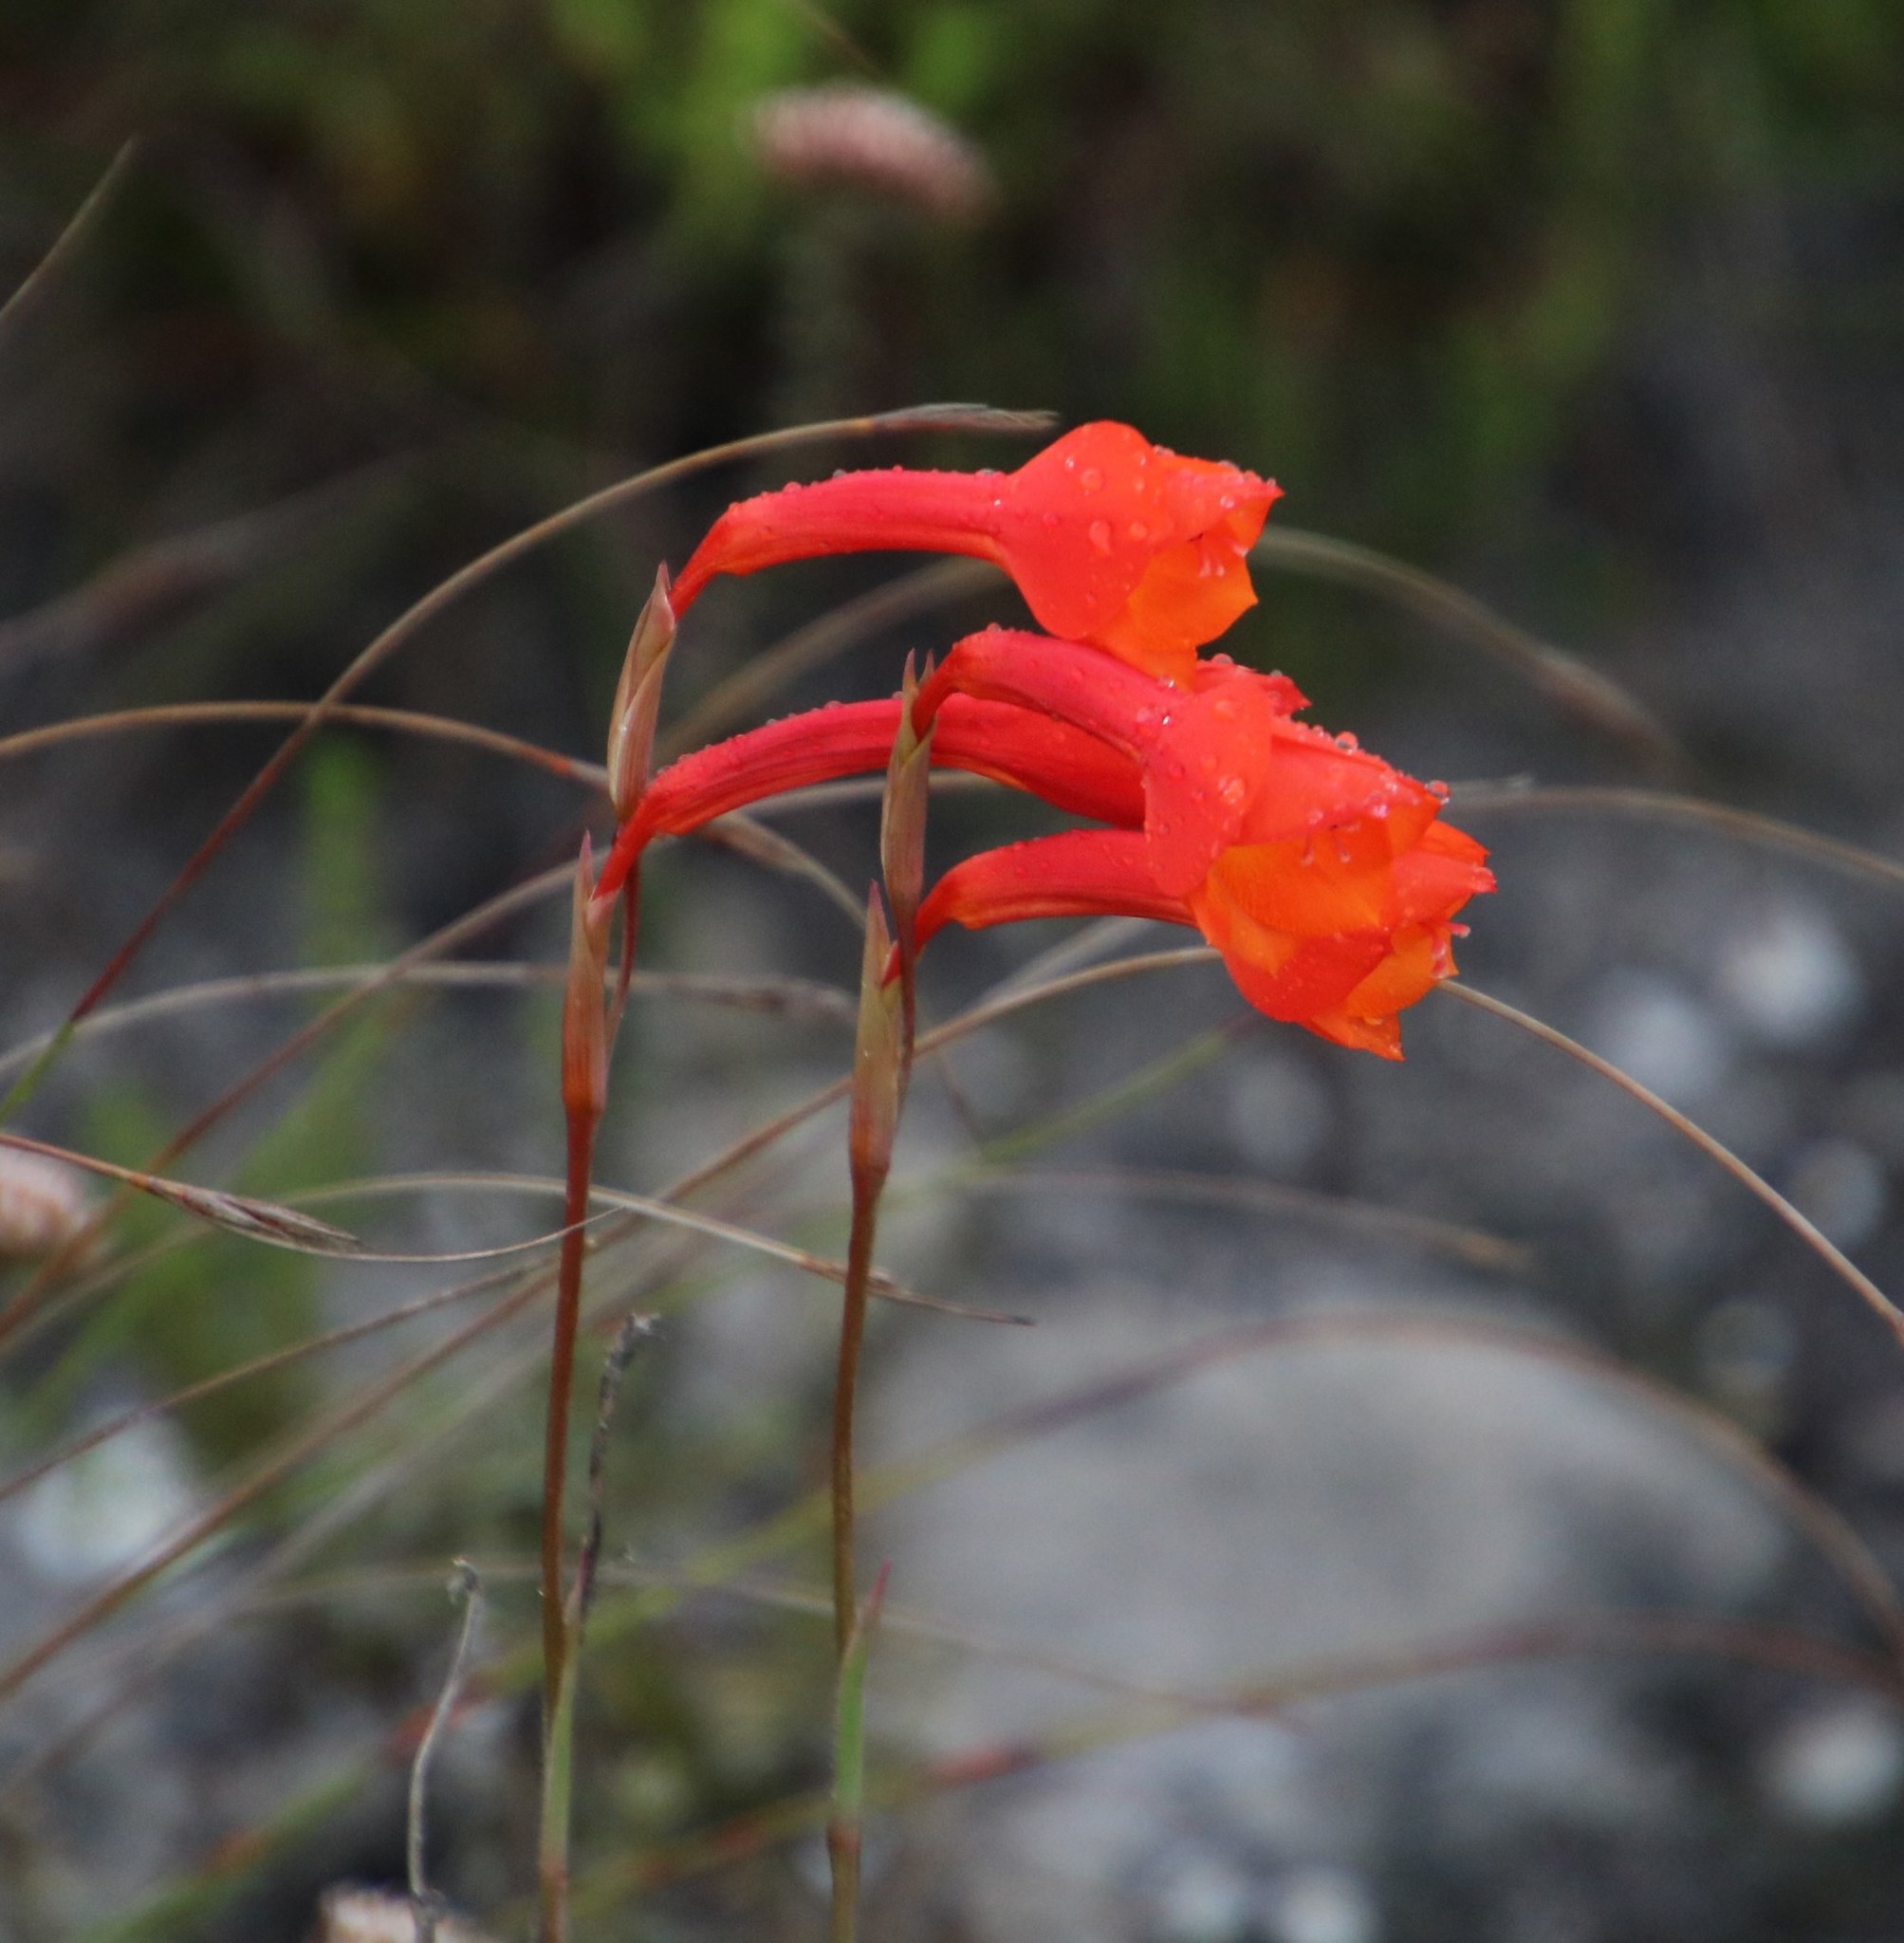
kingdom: Plantae
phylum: Tracheophyta
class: Liliopsida
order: Asparagales
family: Iridaceae
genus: Gladiolus
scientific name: Gladiolus merianellus
